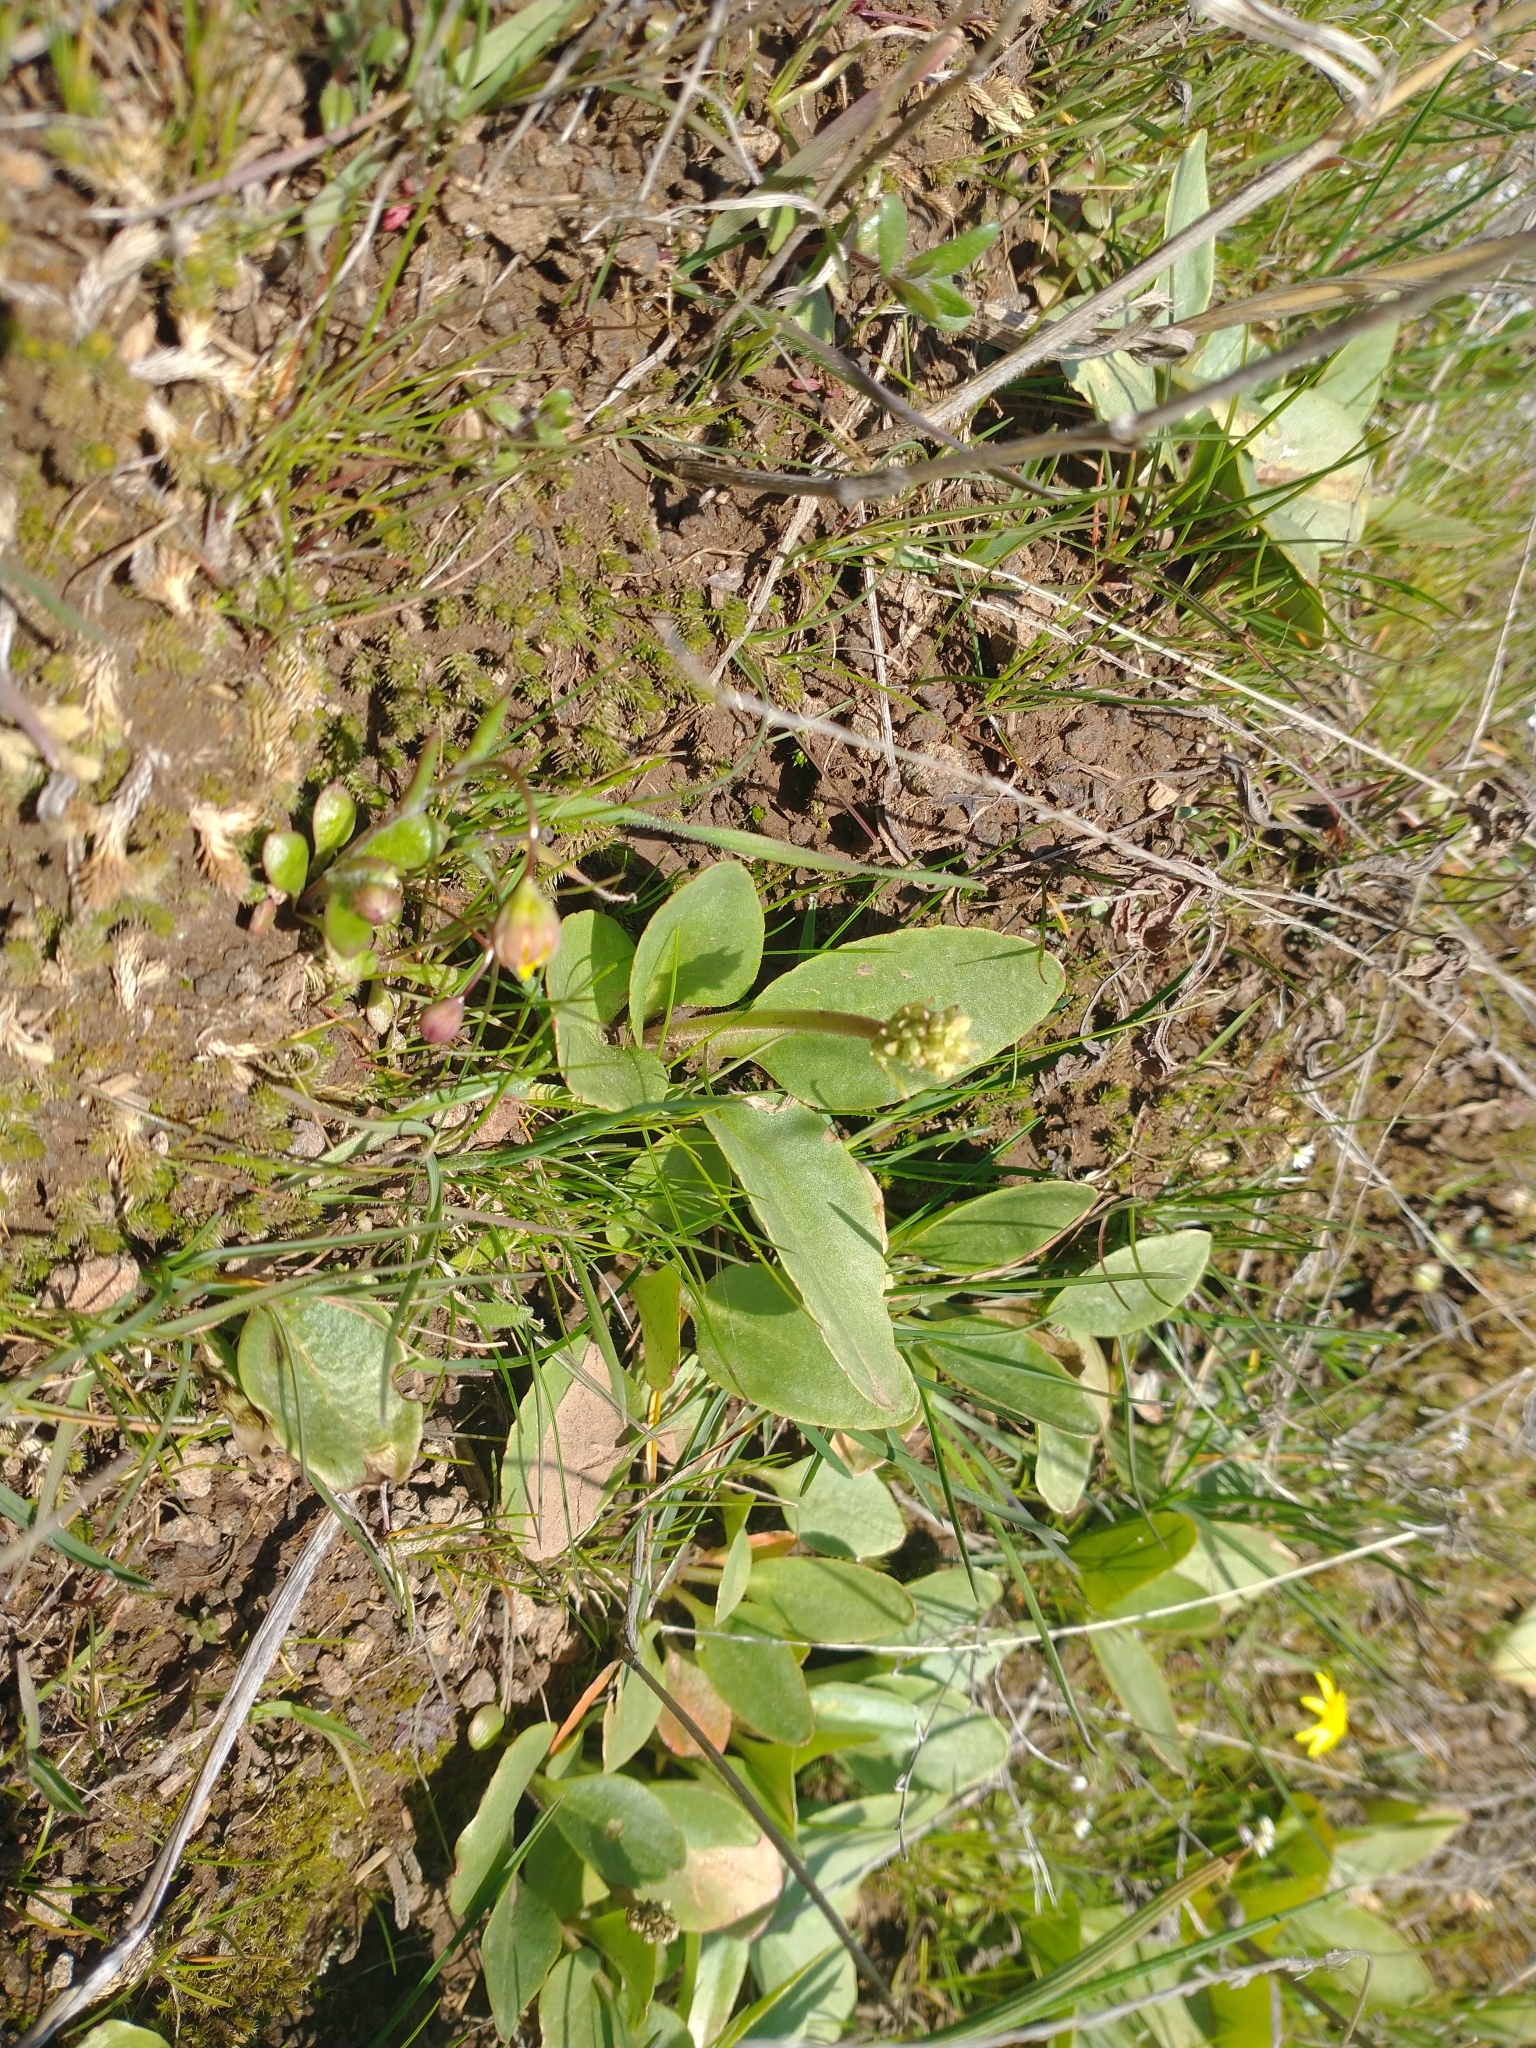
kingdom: Plantae
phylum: Tracheophyta
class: Magnoliopsida
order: Asterales
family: Asteraceae
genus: Crocidium
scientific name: Crocidium multicaule
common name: Common spring gold
